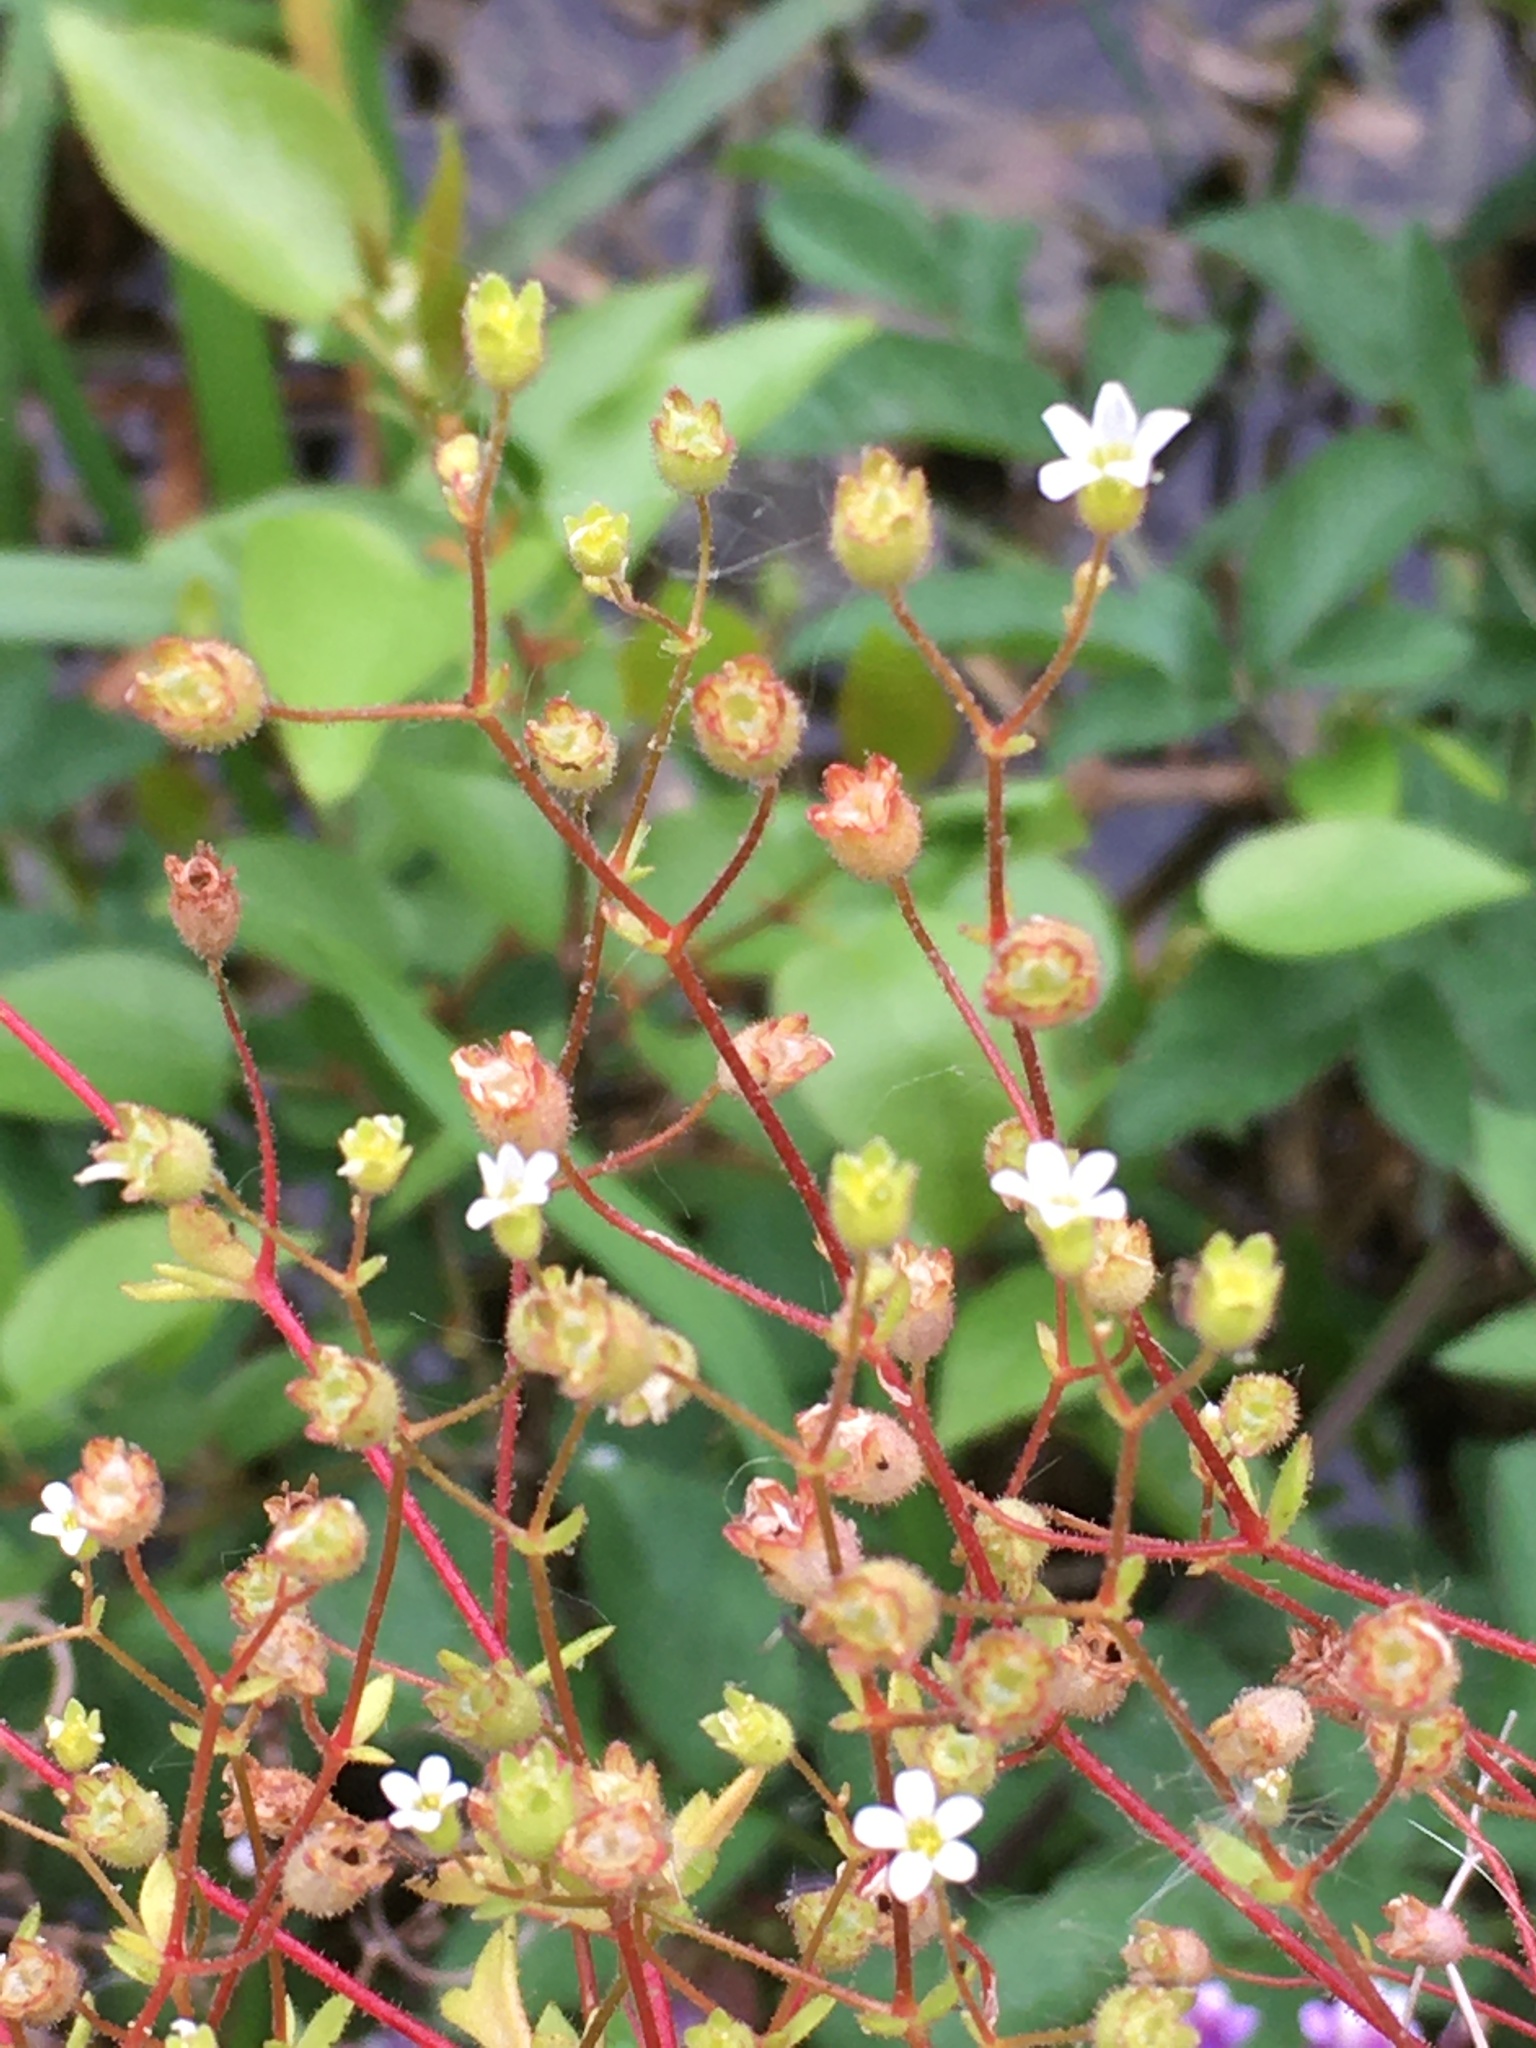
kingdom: Plantae
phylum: Tracheophyta
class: Magnoliopsida
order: Saxifragales
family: Saxifragaceae
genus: Saxifraga
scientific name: Saxifraga tridactylites
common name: Rue-leaved saxifrage
